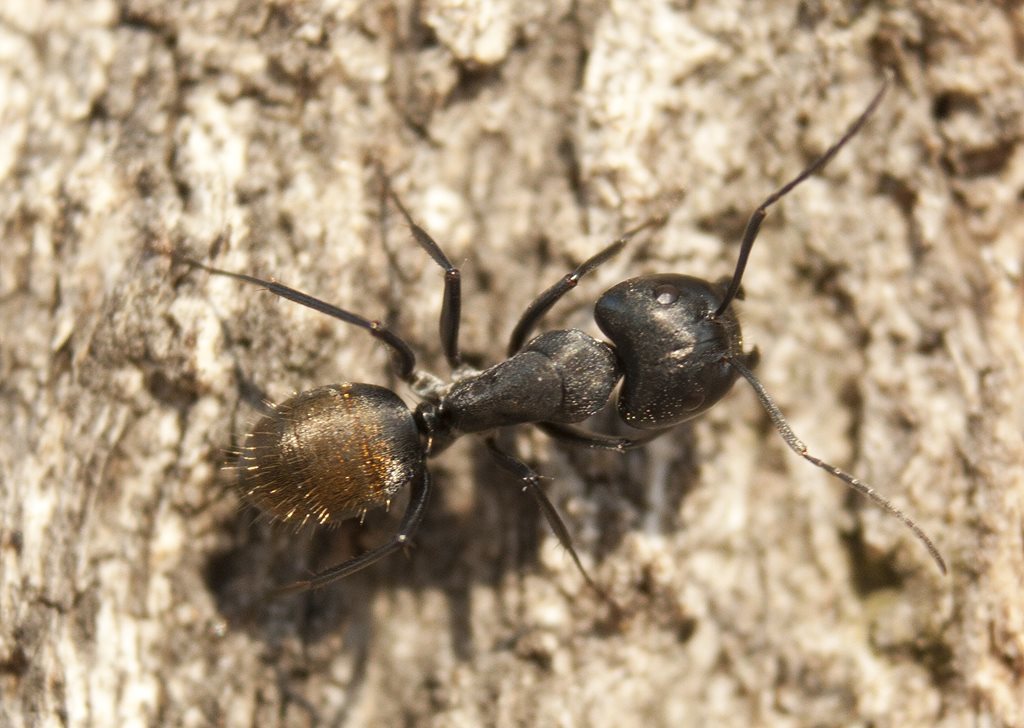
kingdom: Animalia
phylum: Arthropoda
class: Insecta
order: Hymenoptera
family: Formicidae
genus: Camponotus
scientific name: Camponotus aeneopilosus
